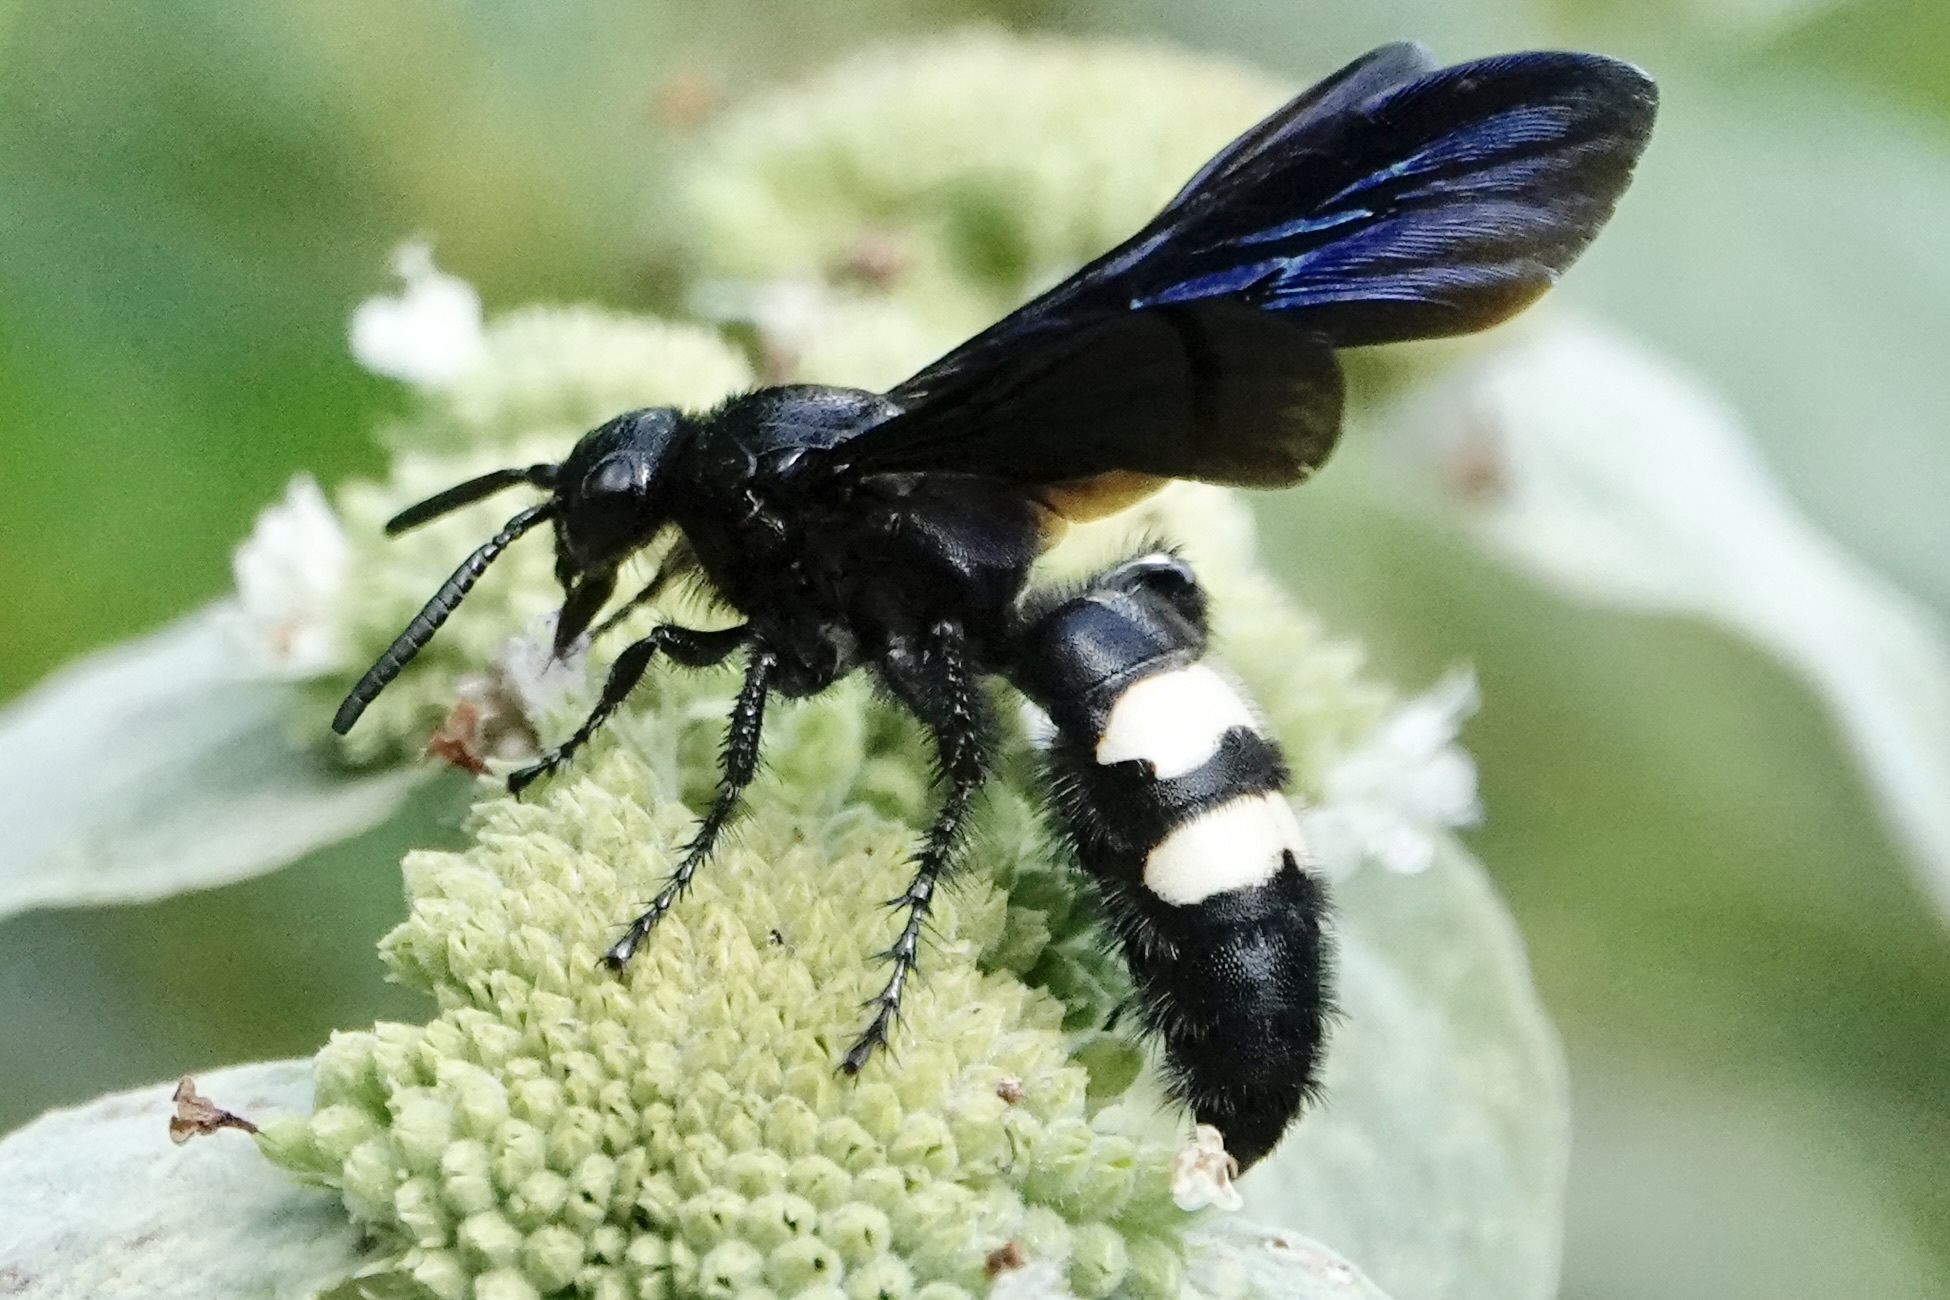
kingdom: Animalia
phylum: Arthropoda
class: Insecta
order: Hymenoptera
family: Scoliidae
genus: Scolia
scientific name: Scolia bicincta
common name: Double-banded scoliid wasp
